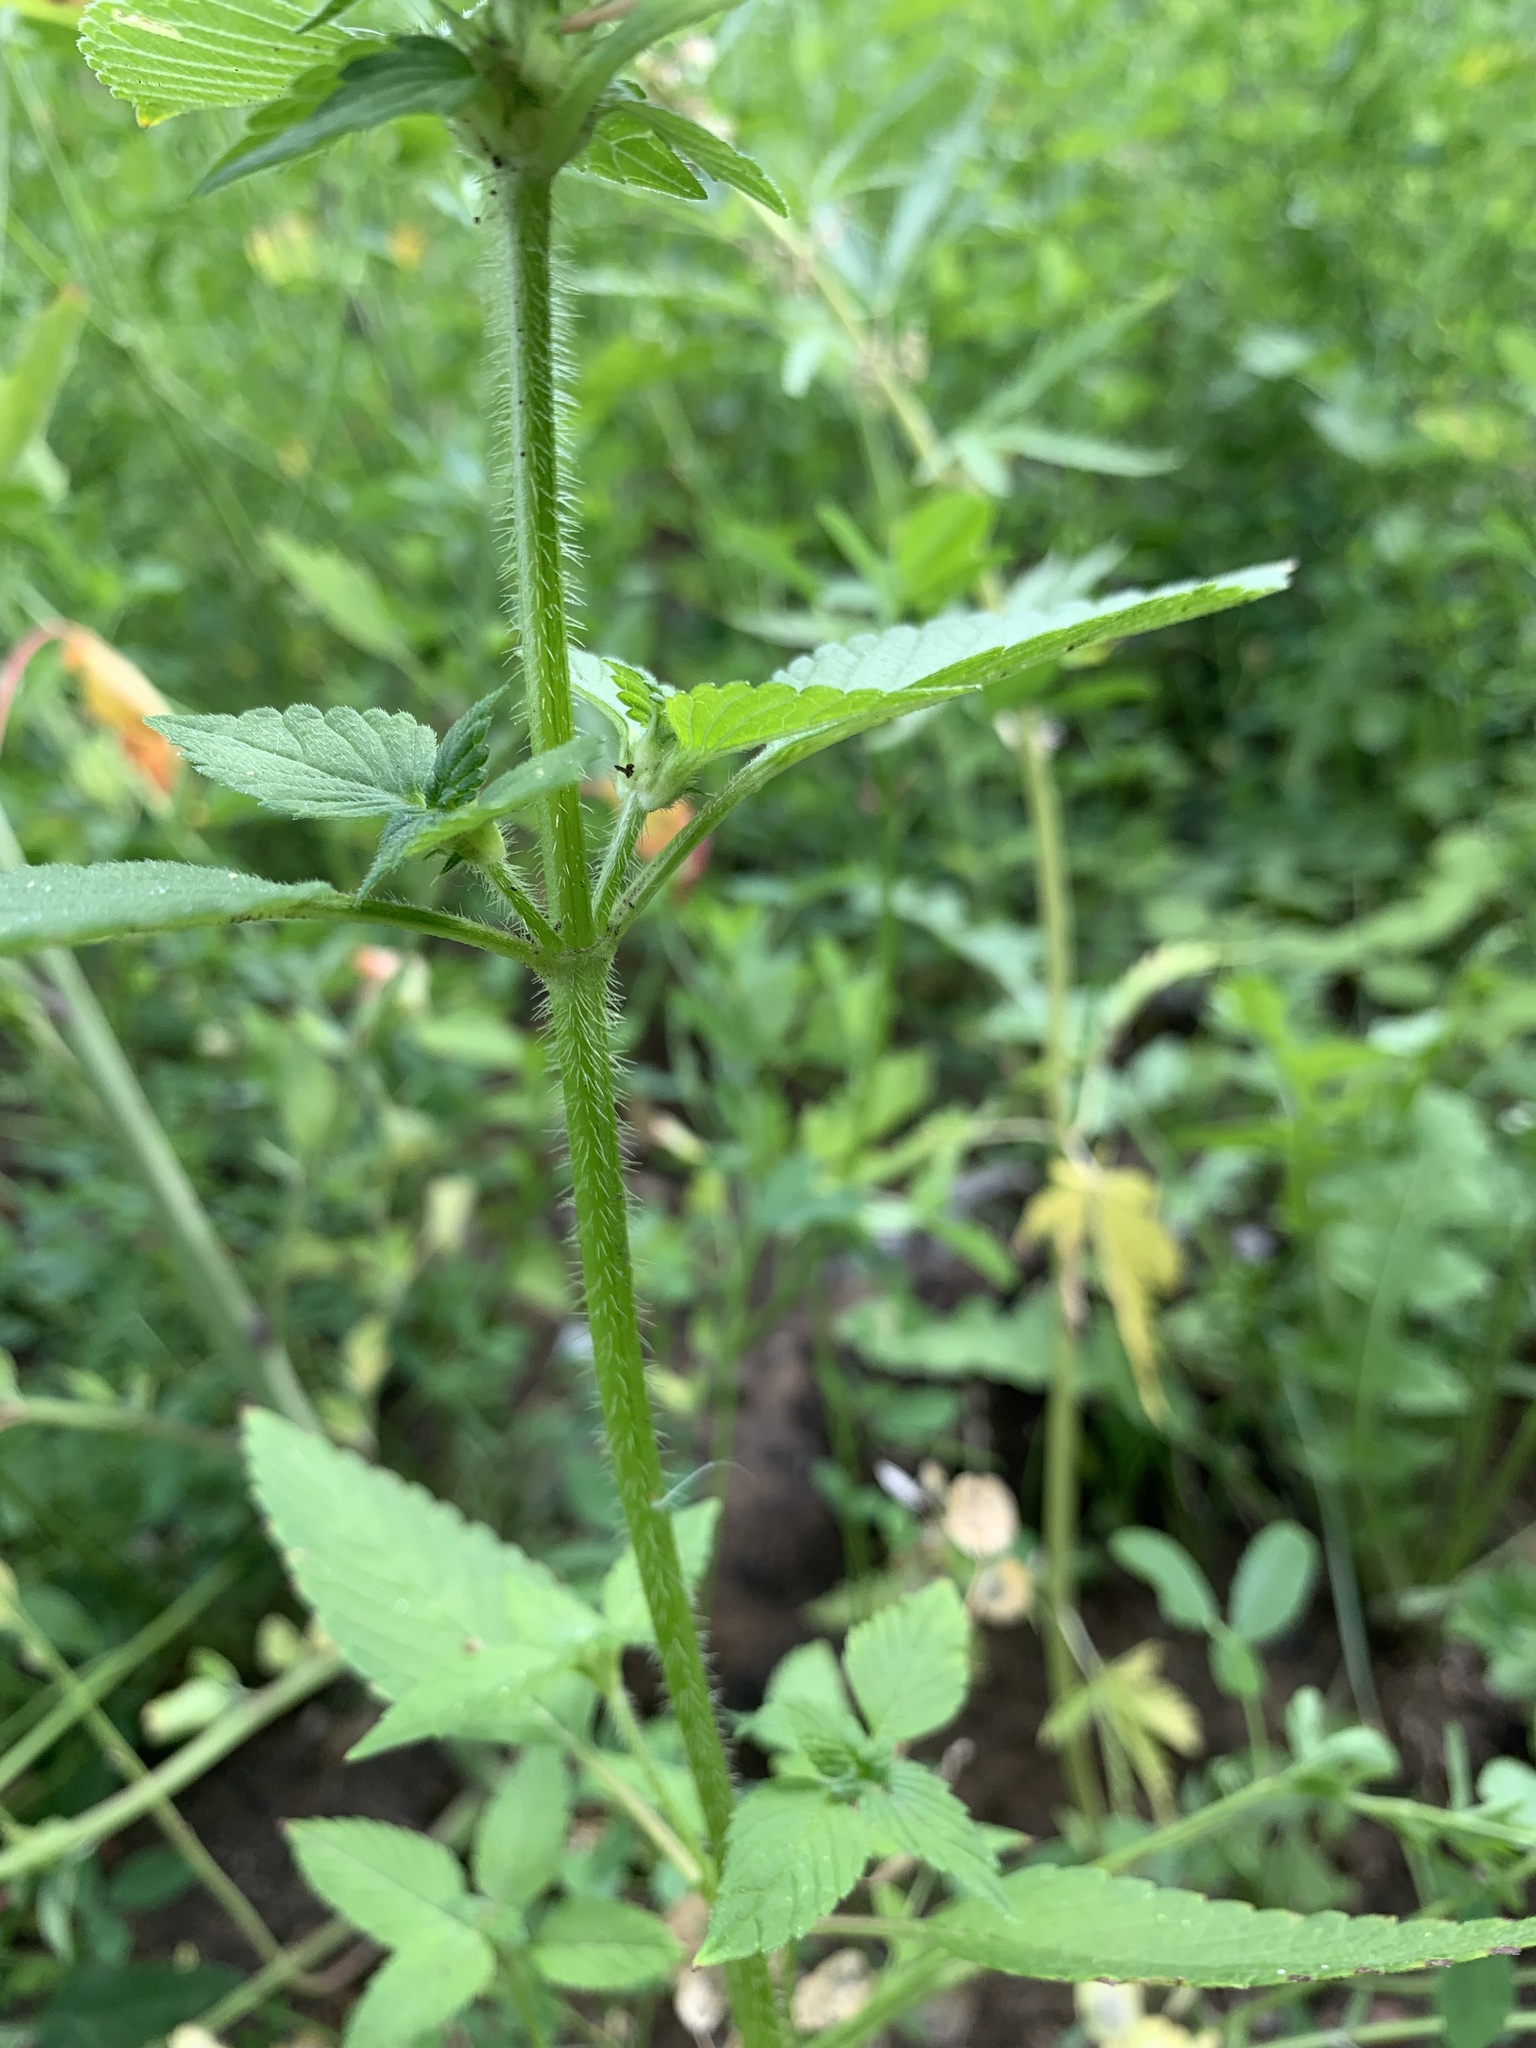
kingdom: Plantae
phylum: Tracheophyta
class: Magnoliopsida
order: Lamiales
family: Lamiaceae
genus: Galeopsis
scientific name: Galeopsis bifida
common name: Bifid hemp-nettle
